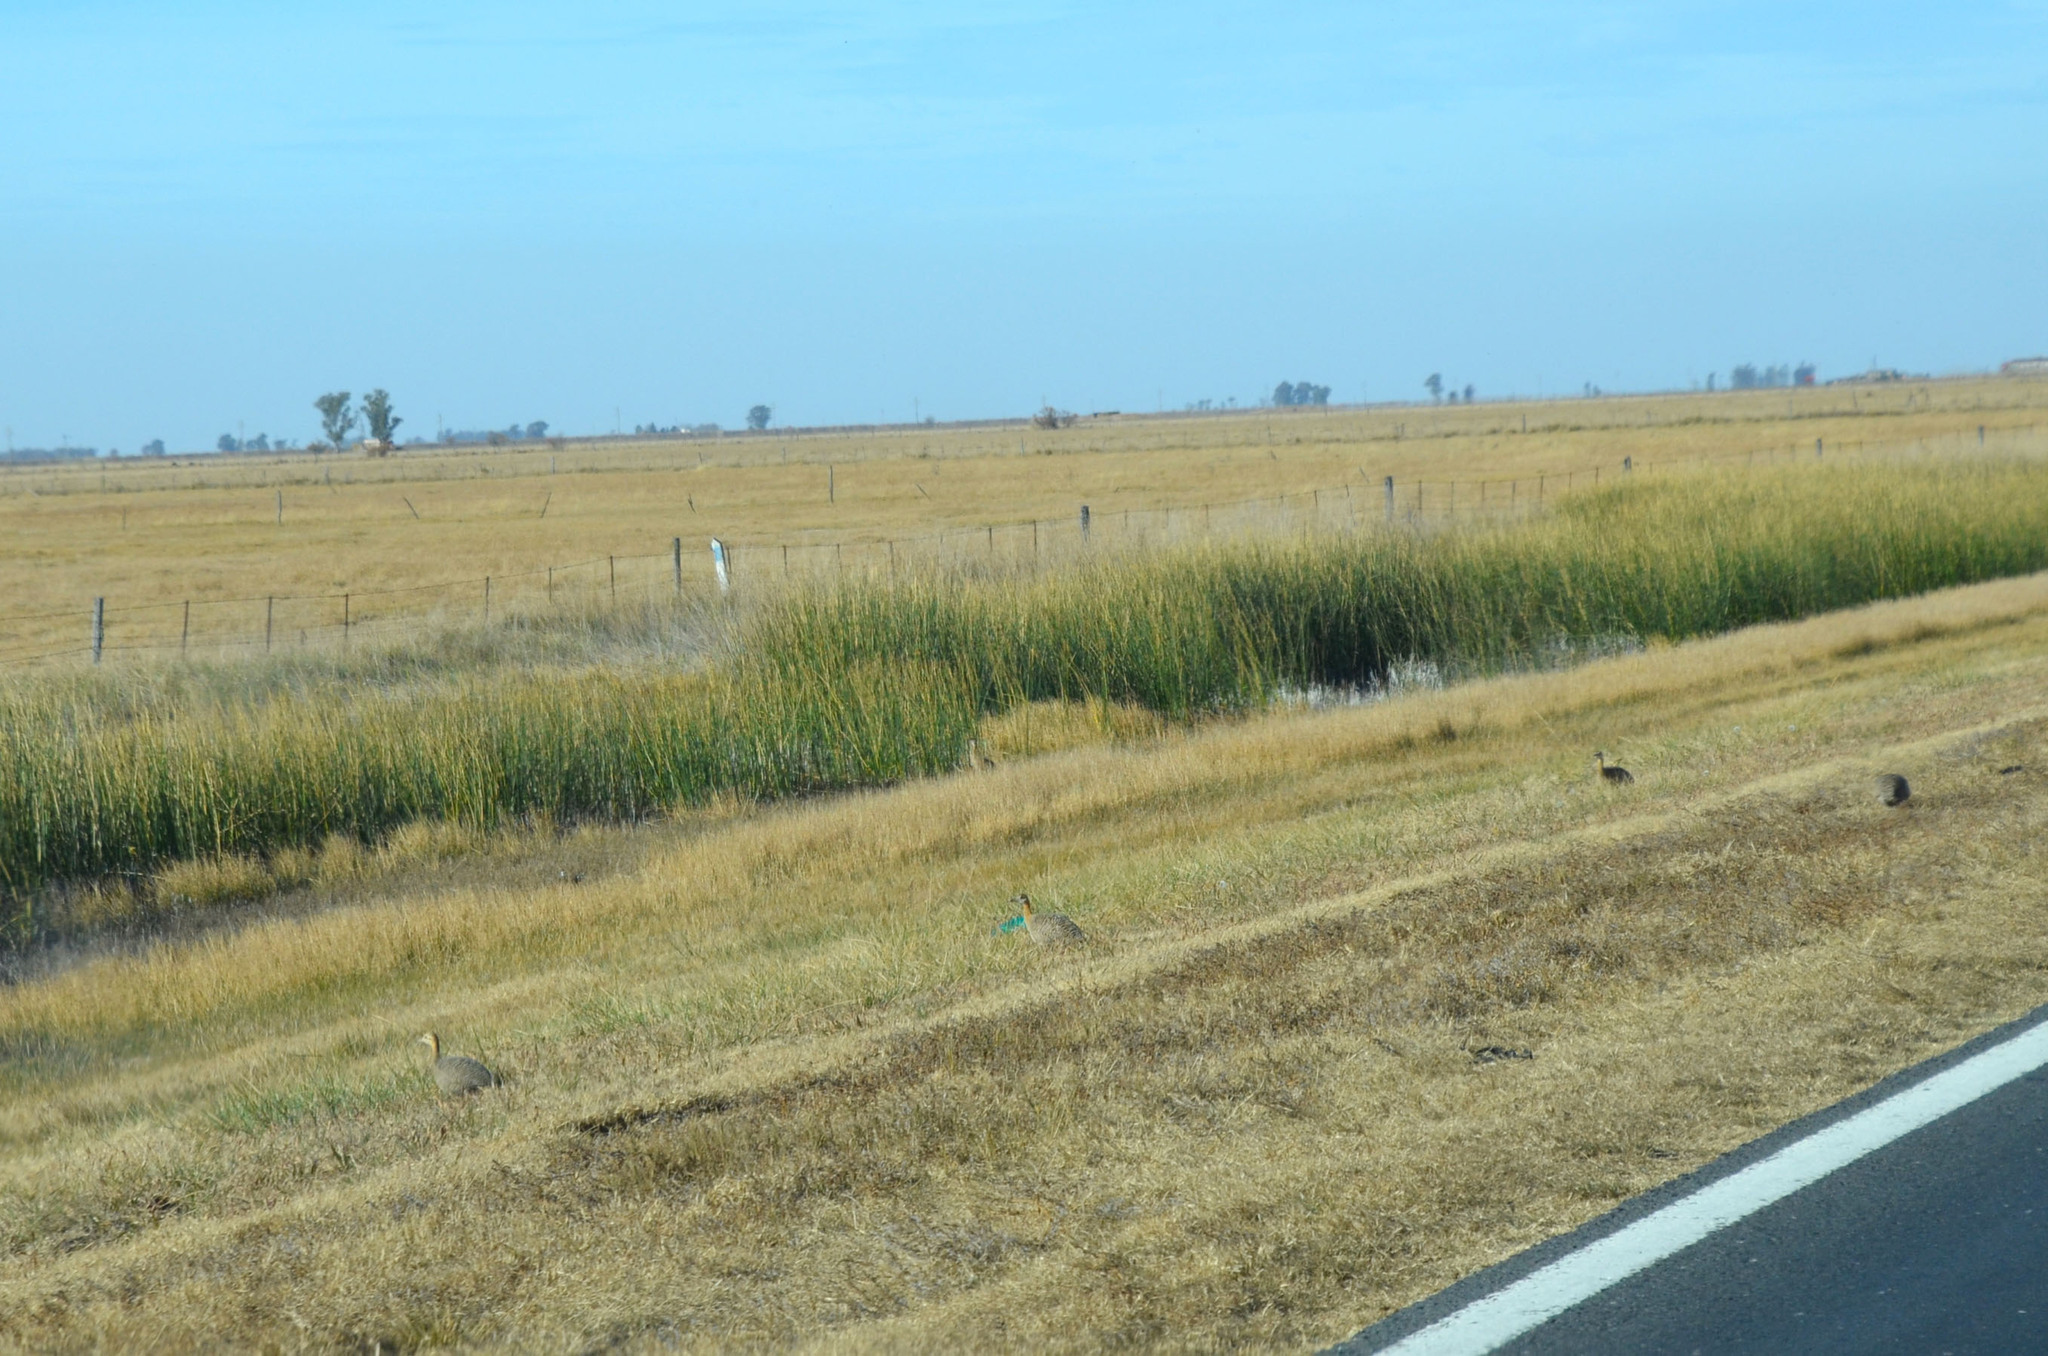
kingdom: Animalia
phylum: Chordata
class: Aves
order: Tinamiformes
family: Tinamidae
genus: Rhynchotus
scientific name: Rhynchotus rufescens
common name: Red-winged tinamou
